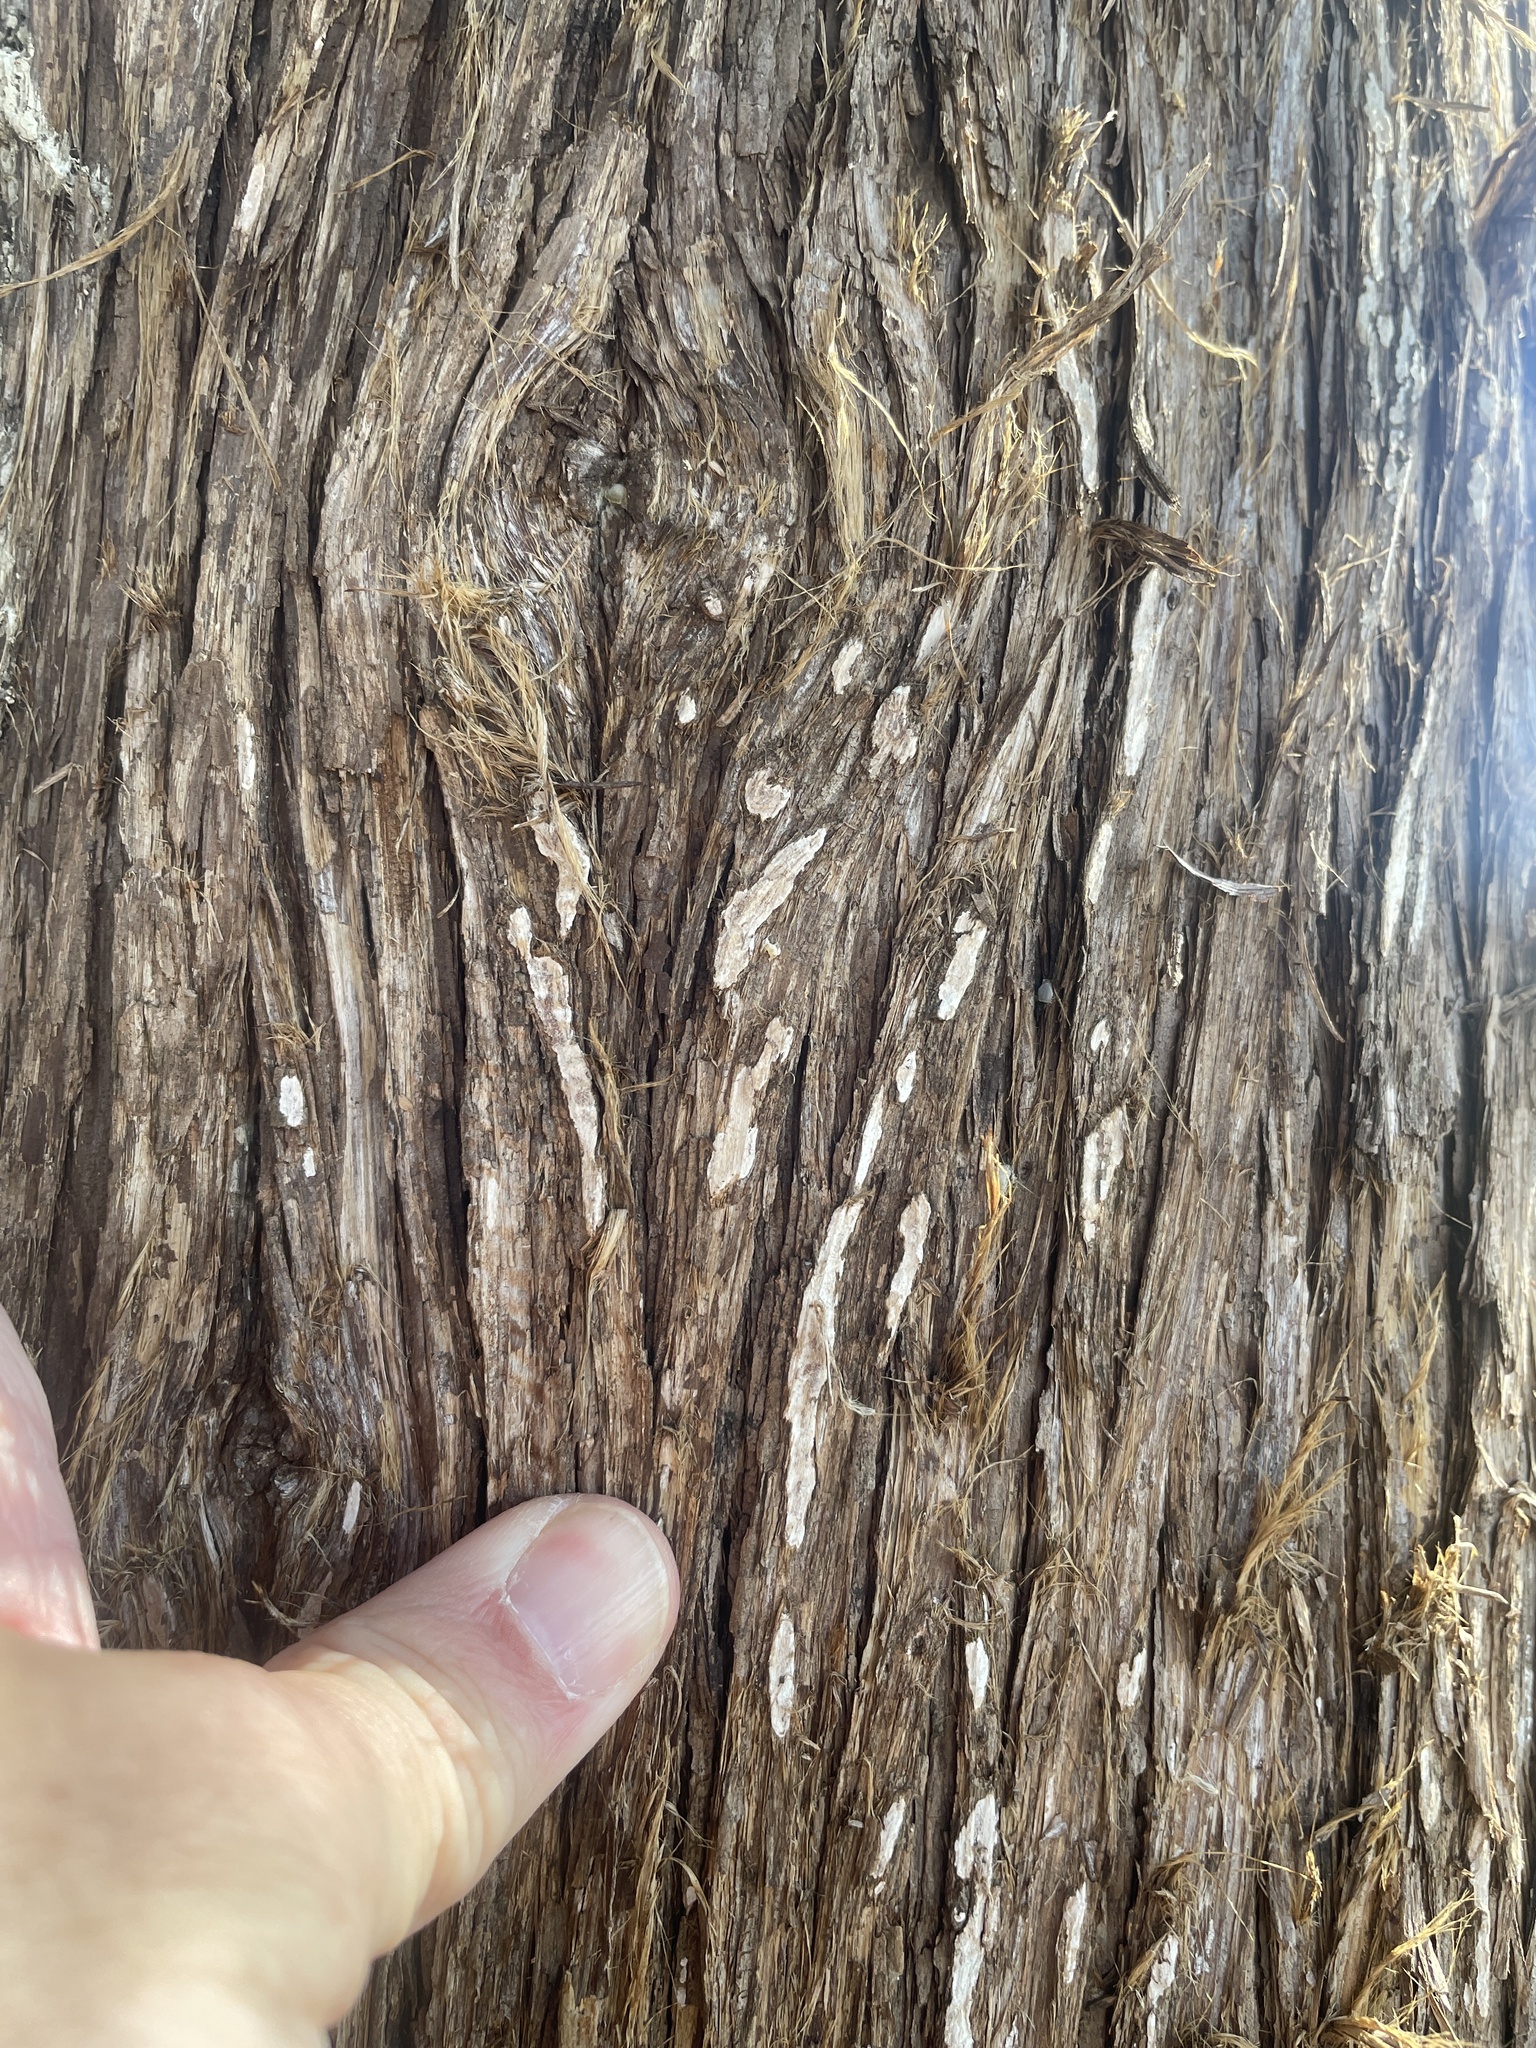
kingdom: Fungi
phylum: Basidiomycota
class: Agaricomycetes
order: Agaricales
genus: Dendrothele
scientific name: Dendrothele nivosa
